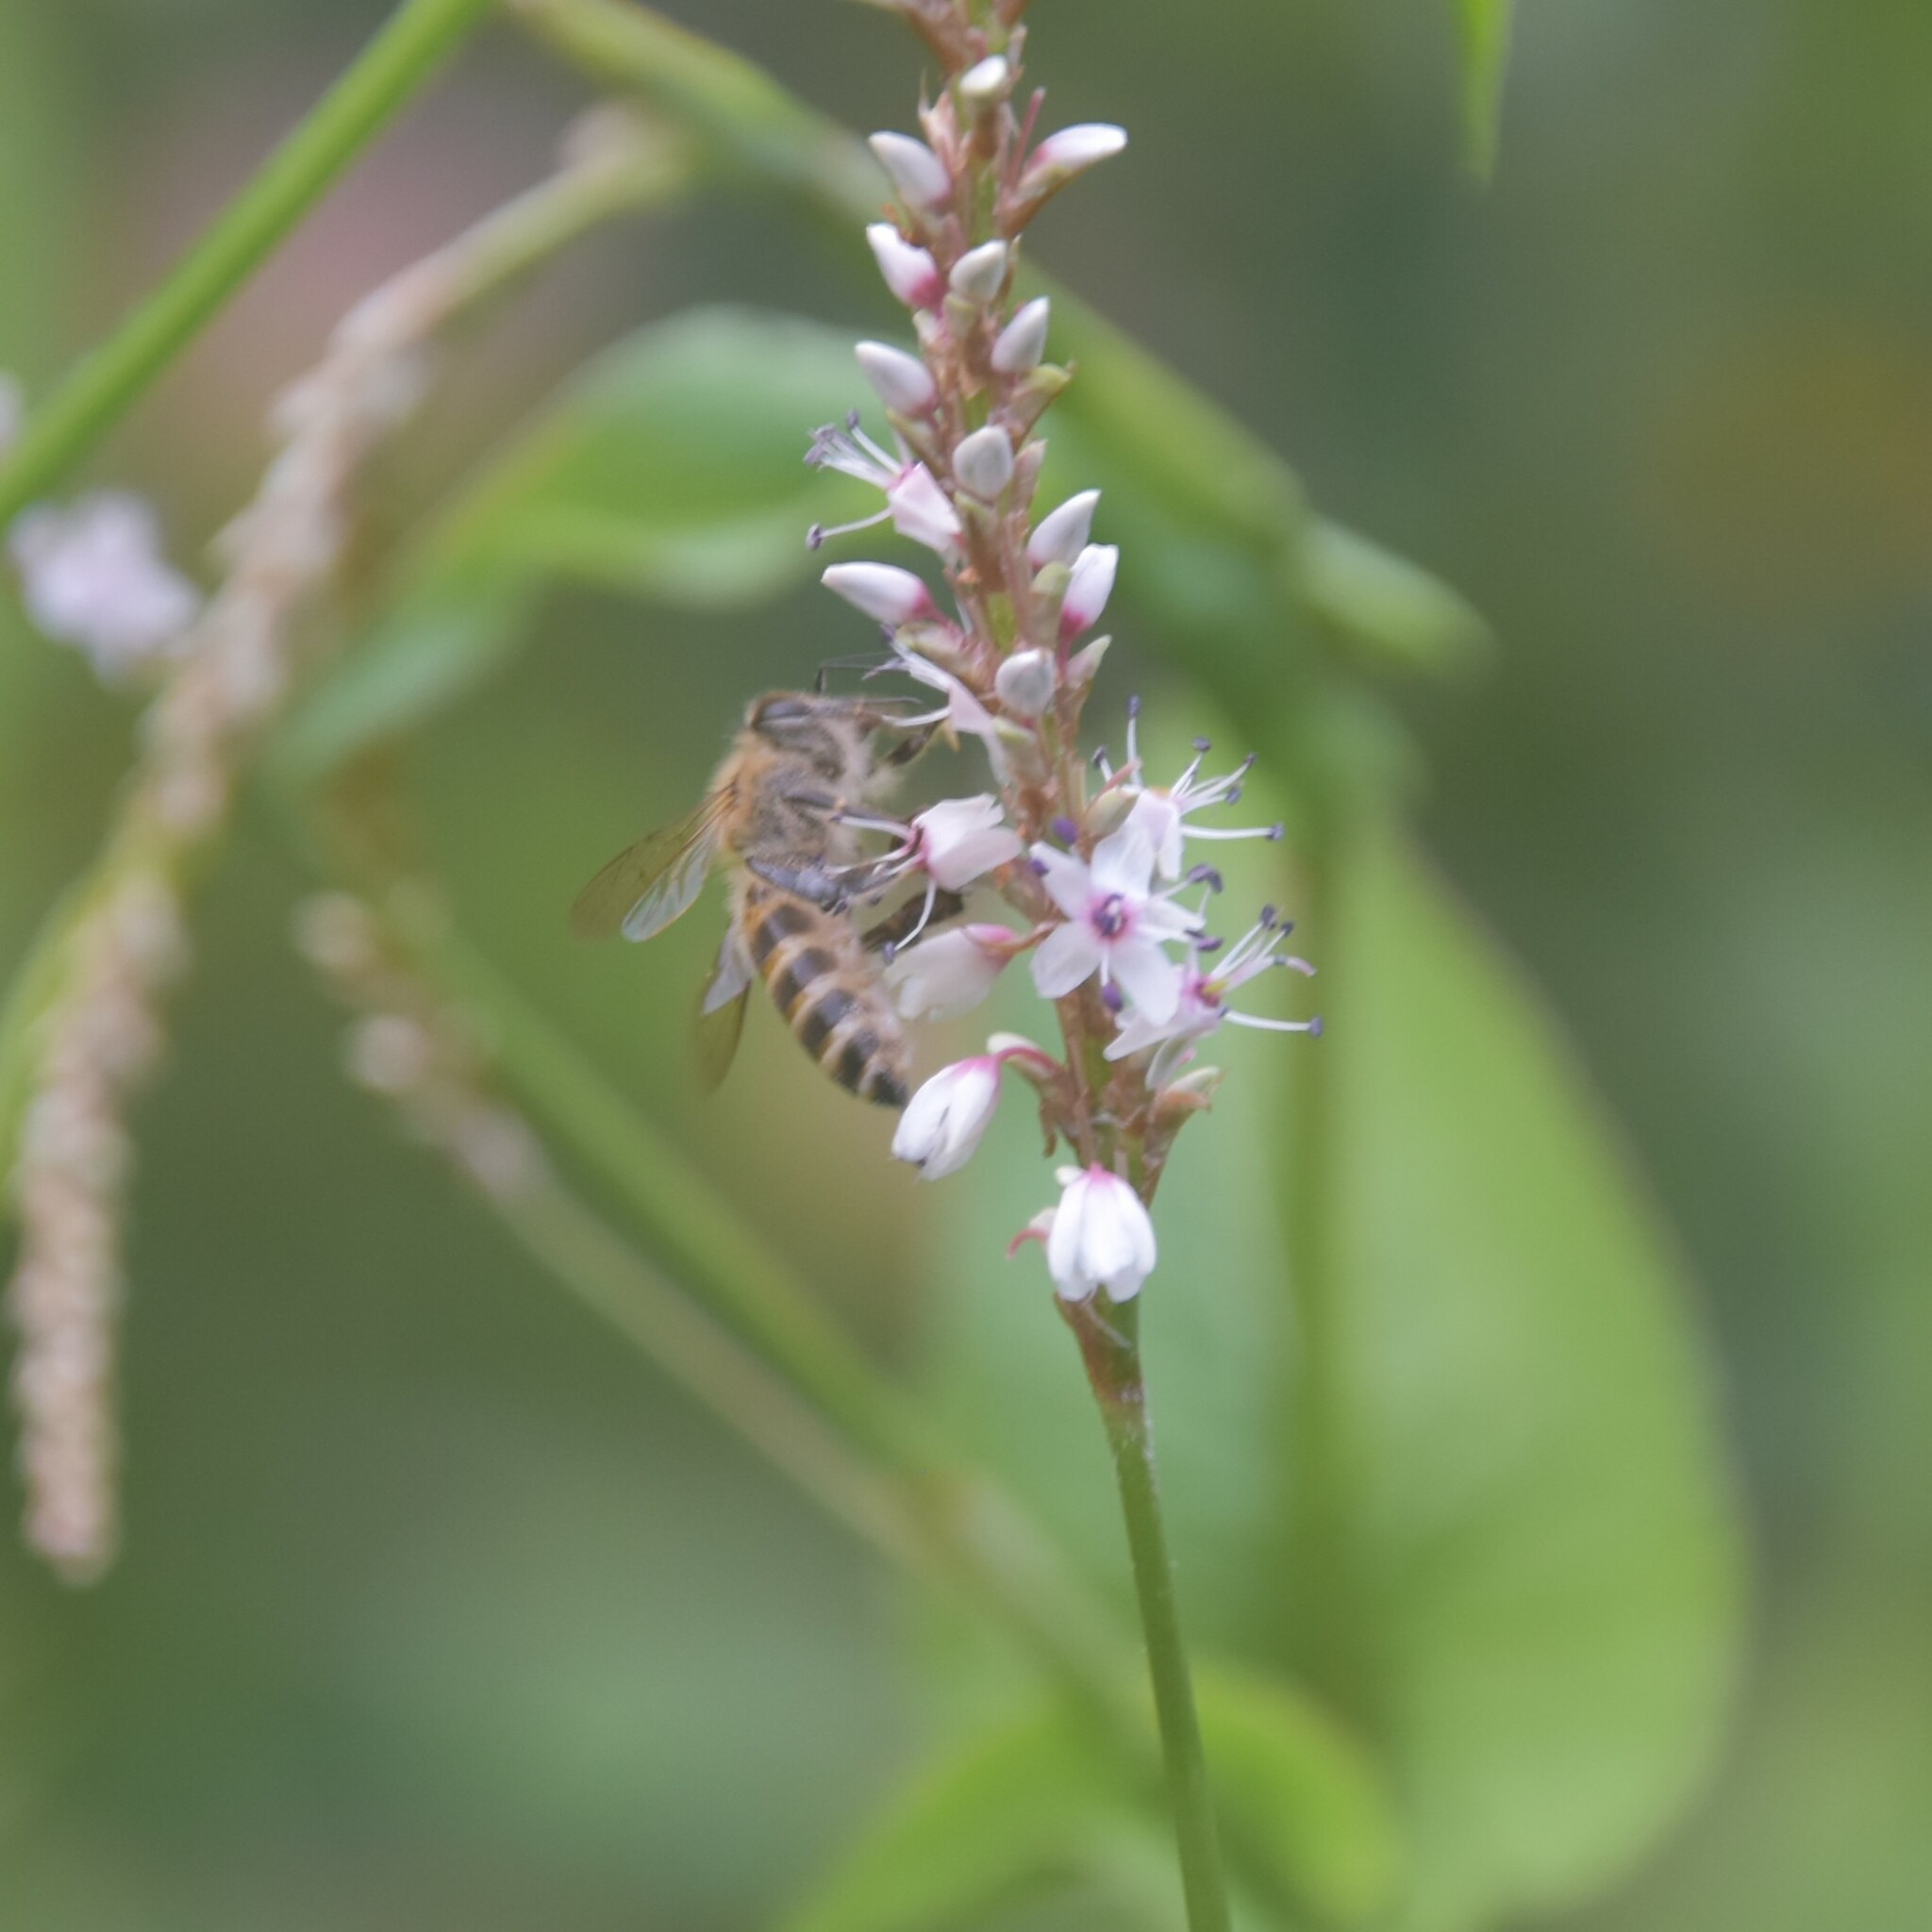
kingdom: Animalia
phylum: Arthropoda
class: Insecta
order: Hymenoptera
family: Apidae
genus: Apis
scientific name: Apis cerana
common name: Honey bee
